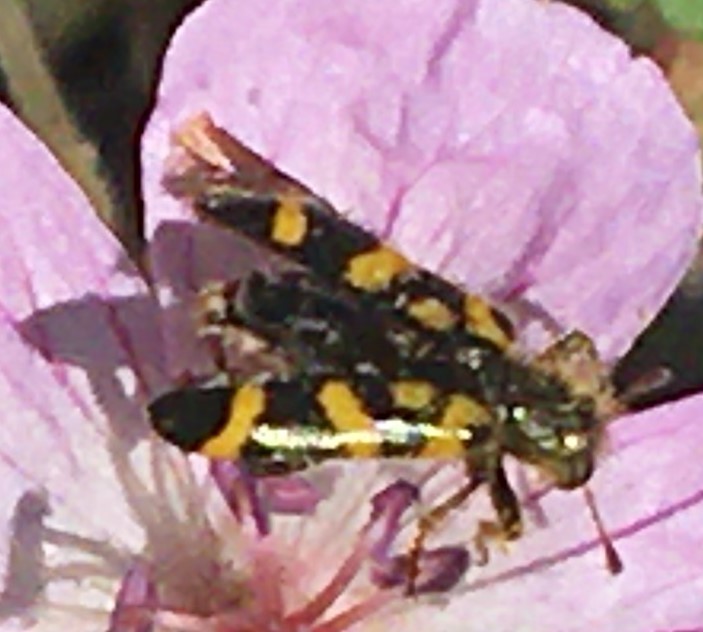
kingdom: Animalia
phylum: Arthropoda
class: Insecta
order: Coleoptera
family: Cleridae
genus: Trichodes
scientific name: Trichodes ornatus
